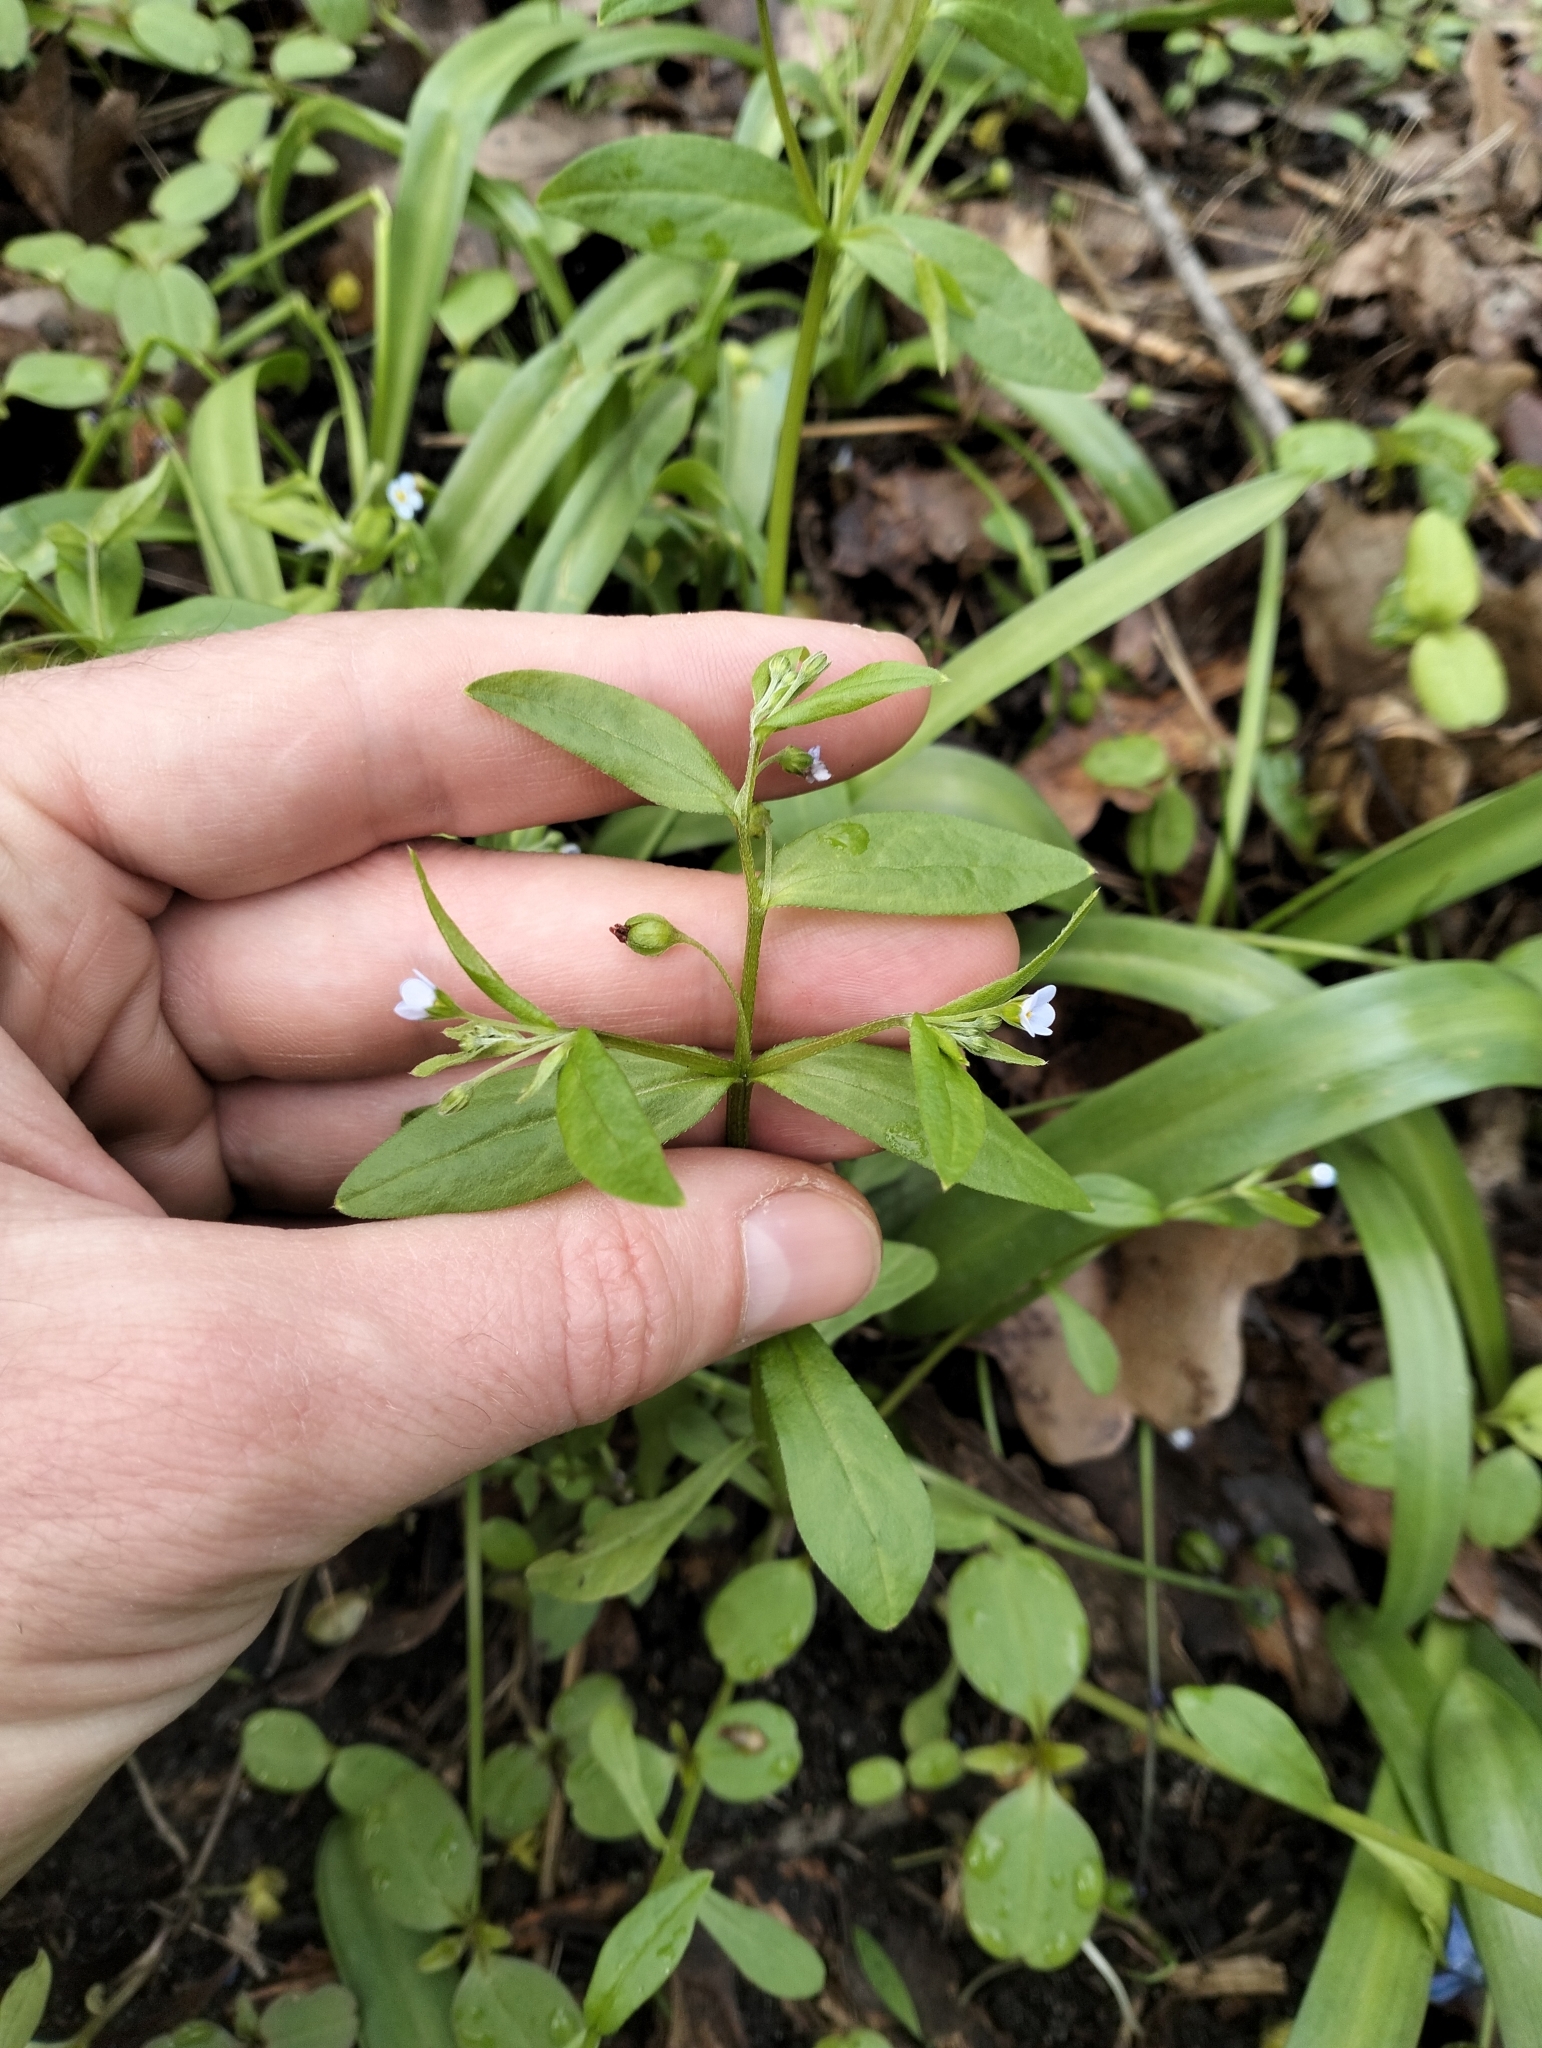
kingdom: Plantae
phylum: Tracheophyta
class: Magnoliopsida
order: Boraginales
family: Boraginaceae
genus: Memoremea
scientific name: Memoremea scorpioides
